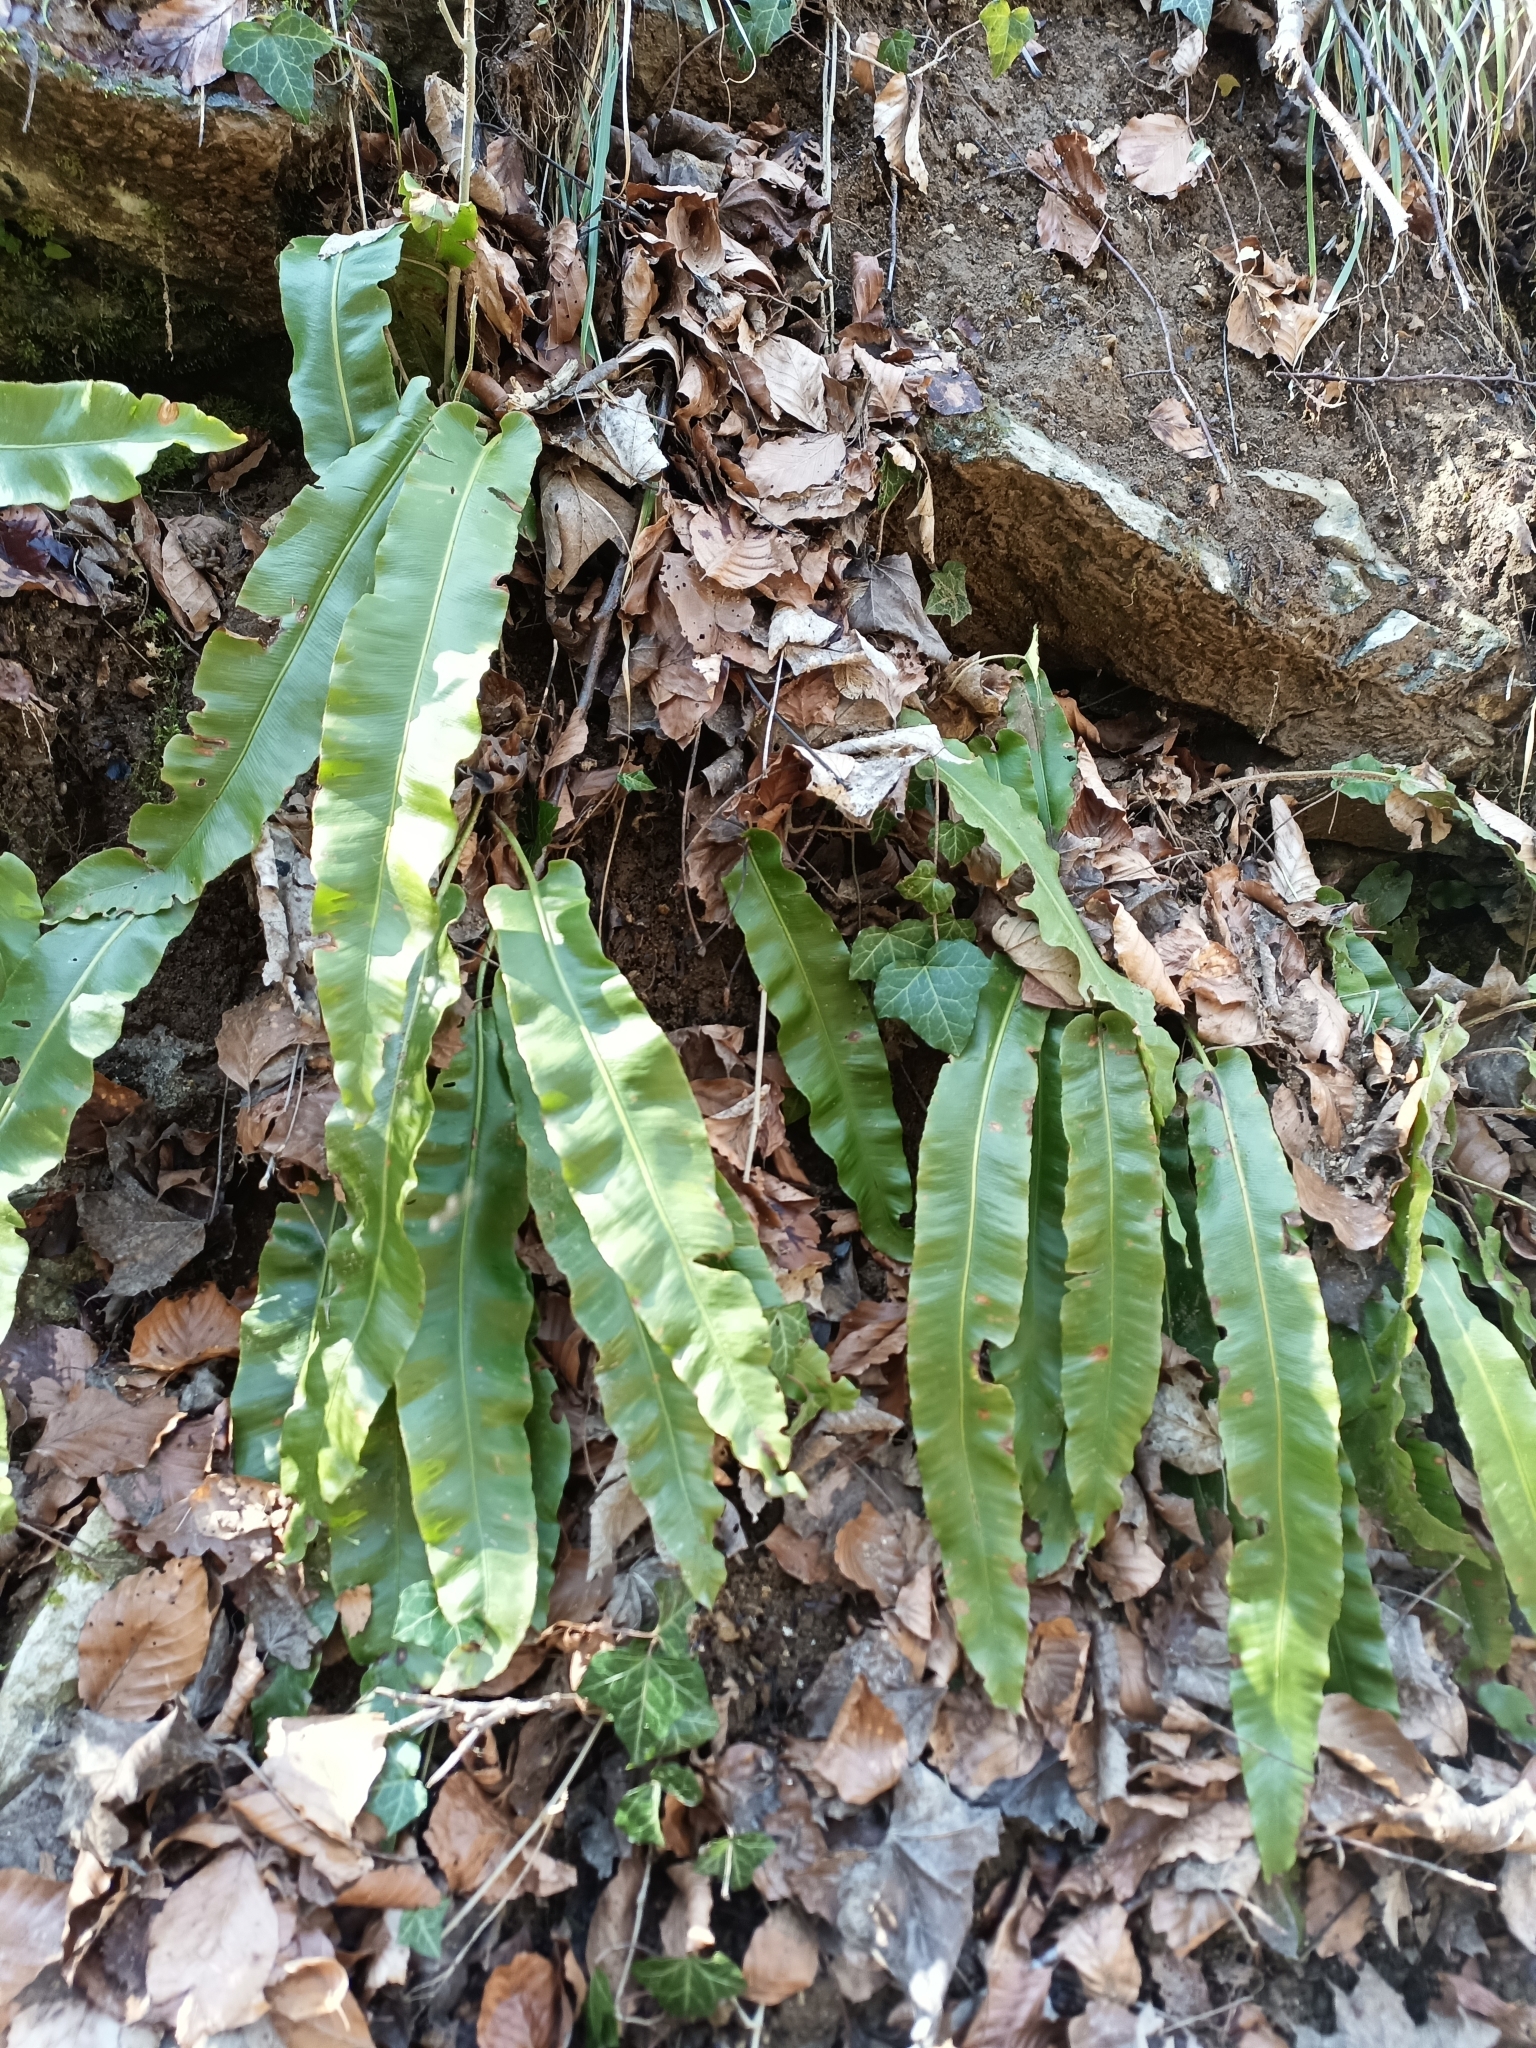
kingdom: Plantae
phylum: Tracheophyta
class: Polypodiopsida
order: Polypodiales
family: Aspleniaceae
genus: Asplenium
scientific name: Asplenium scolopendrium
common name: Hart's-tongue fern
